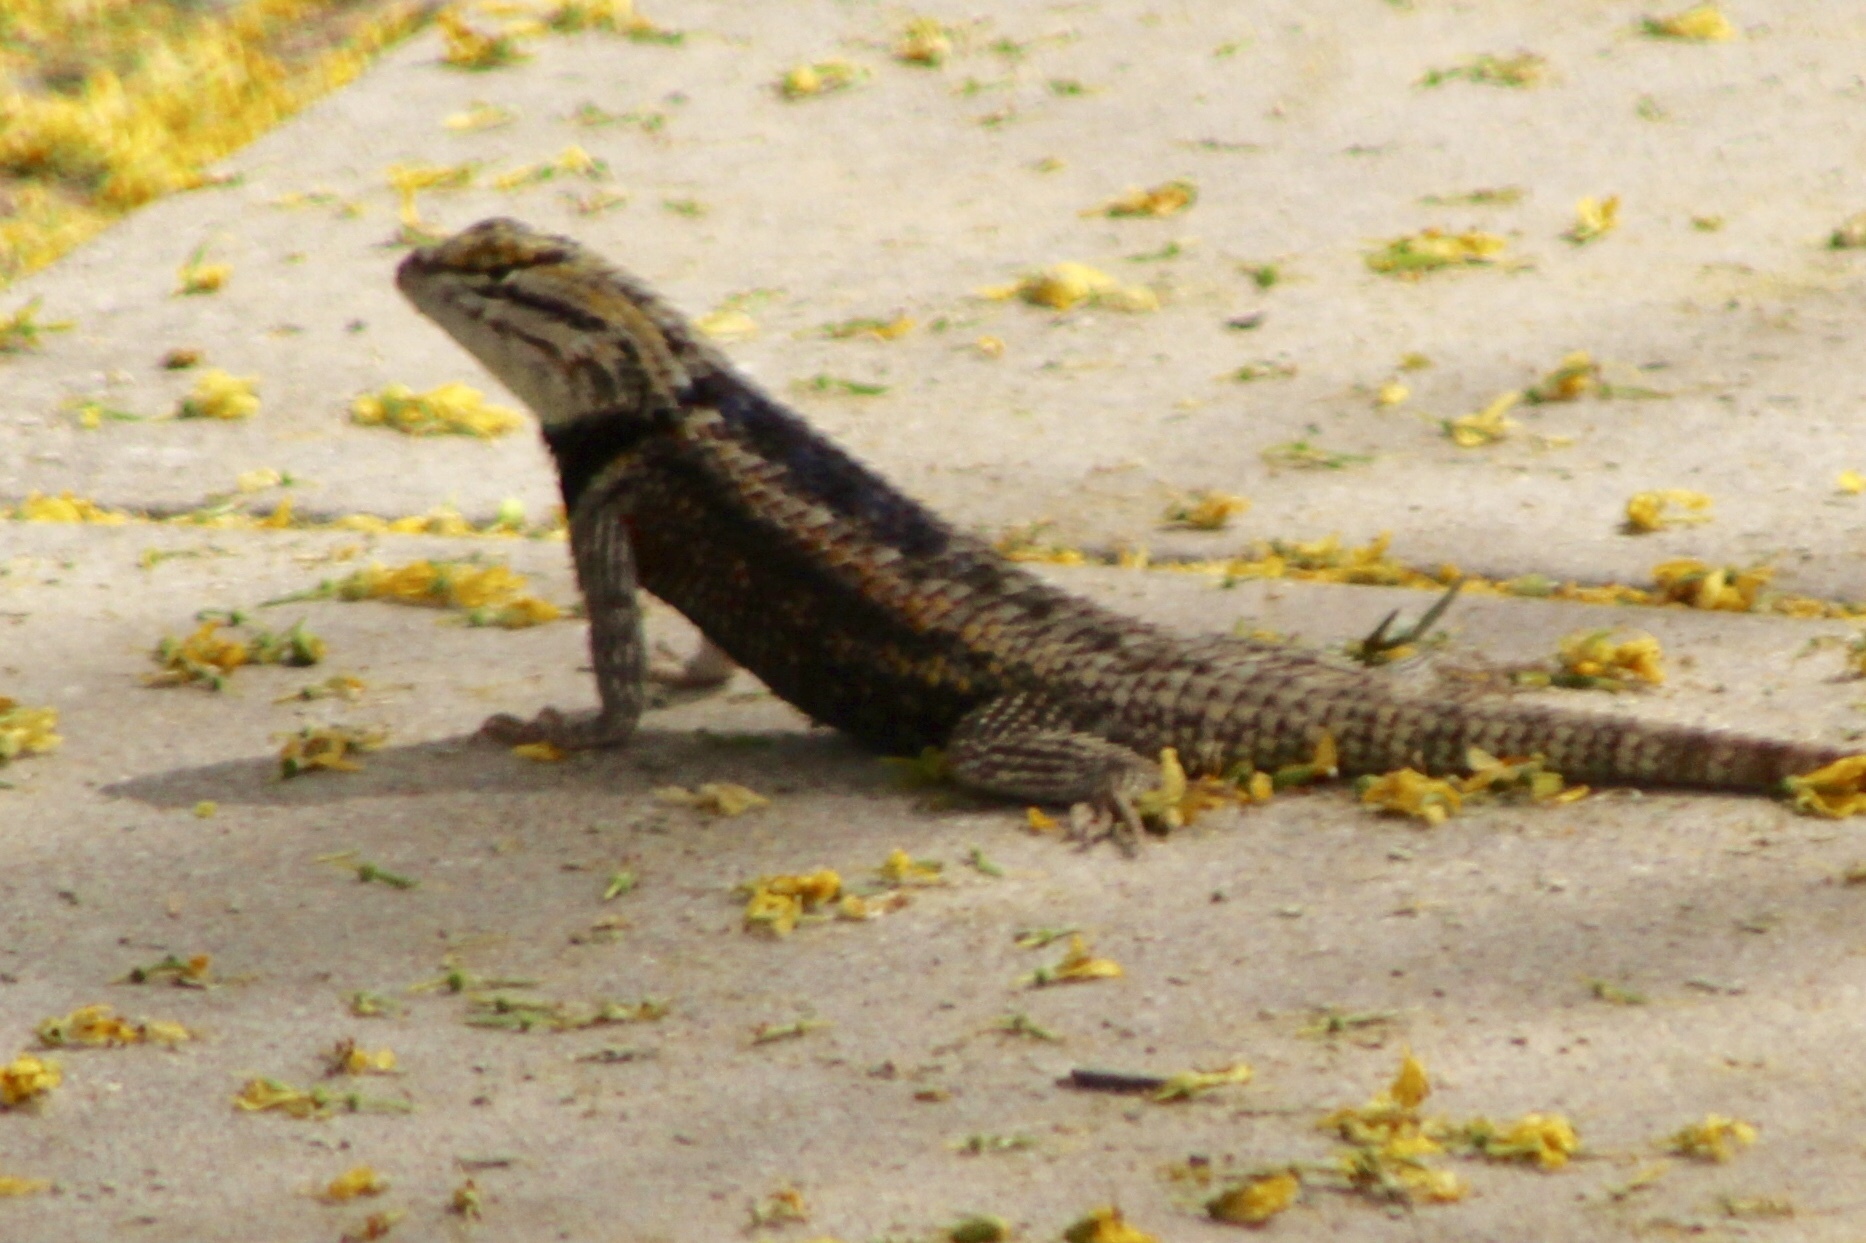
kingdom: Animalia
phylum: Chordata
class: Squamata
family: Phrynosomatidae
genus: Sceloporus
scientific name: Sceloporus magister
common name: Desert spiny lizard
